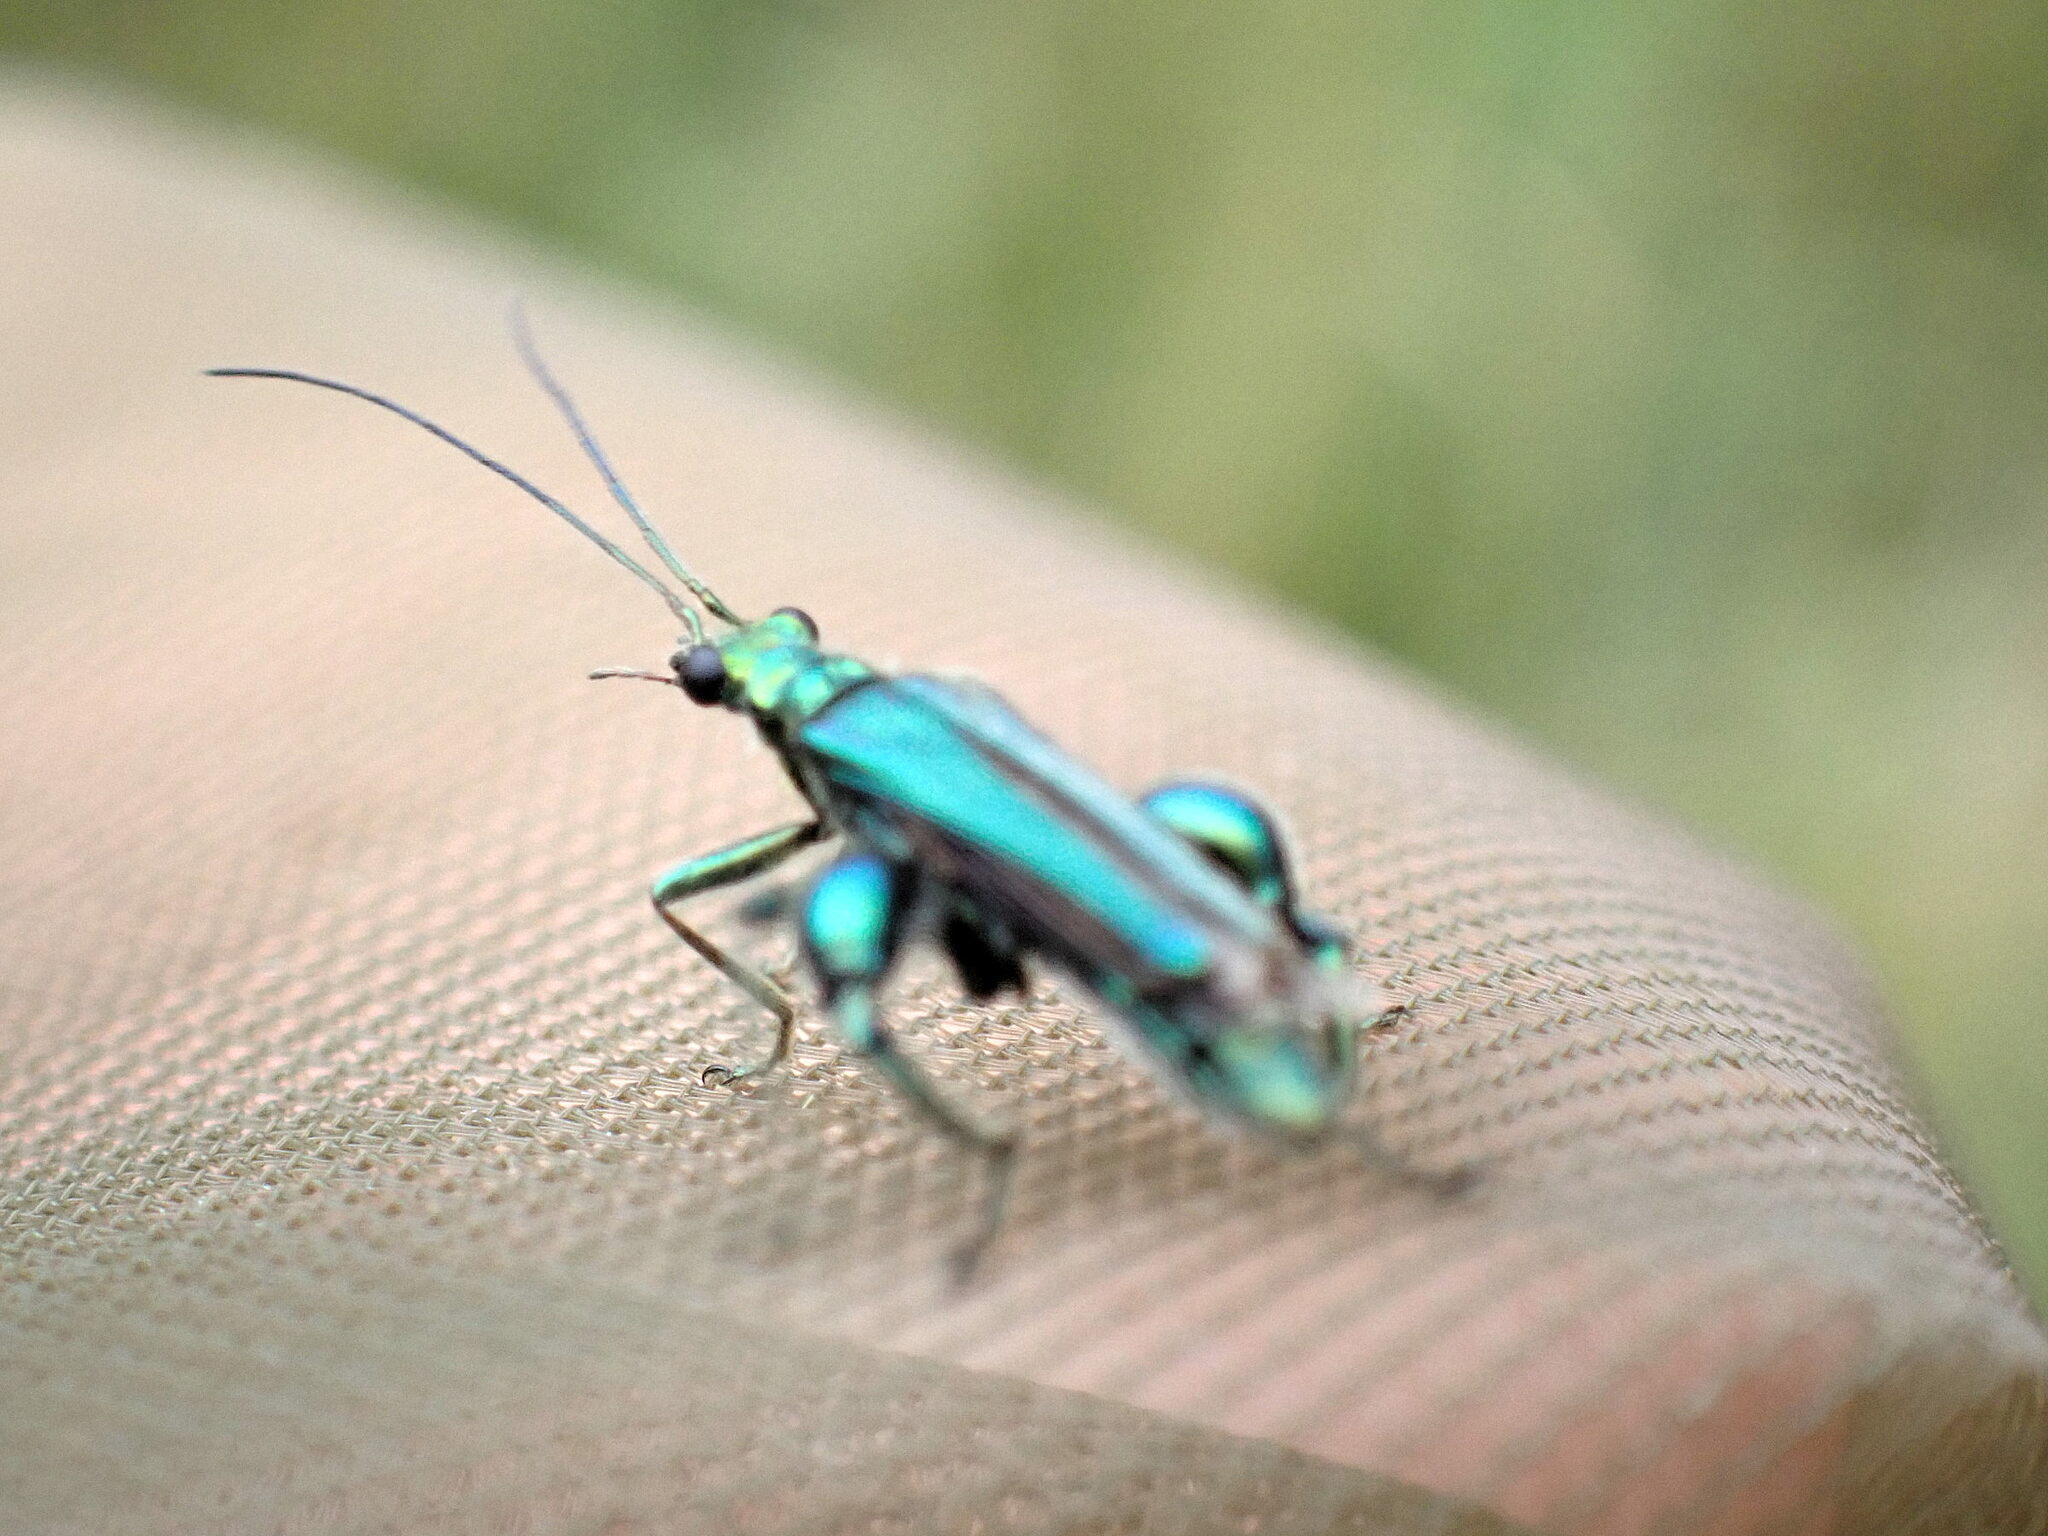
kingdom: Animalia
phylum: Arthropoda
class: Insecta
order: Coleoptera
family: Oedemeridae
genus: Oedemera
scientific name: Oedemera nobilis
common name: Swollen-thighed beetle
